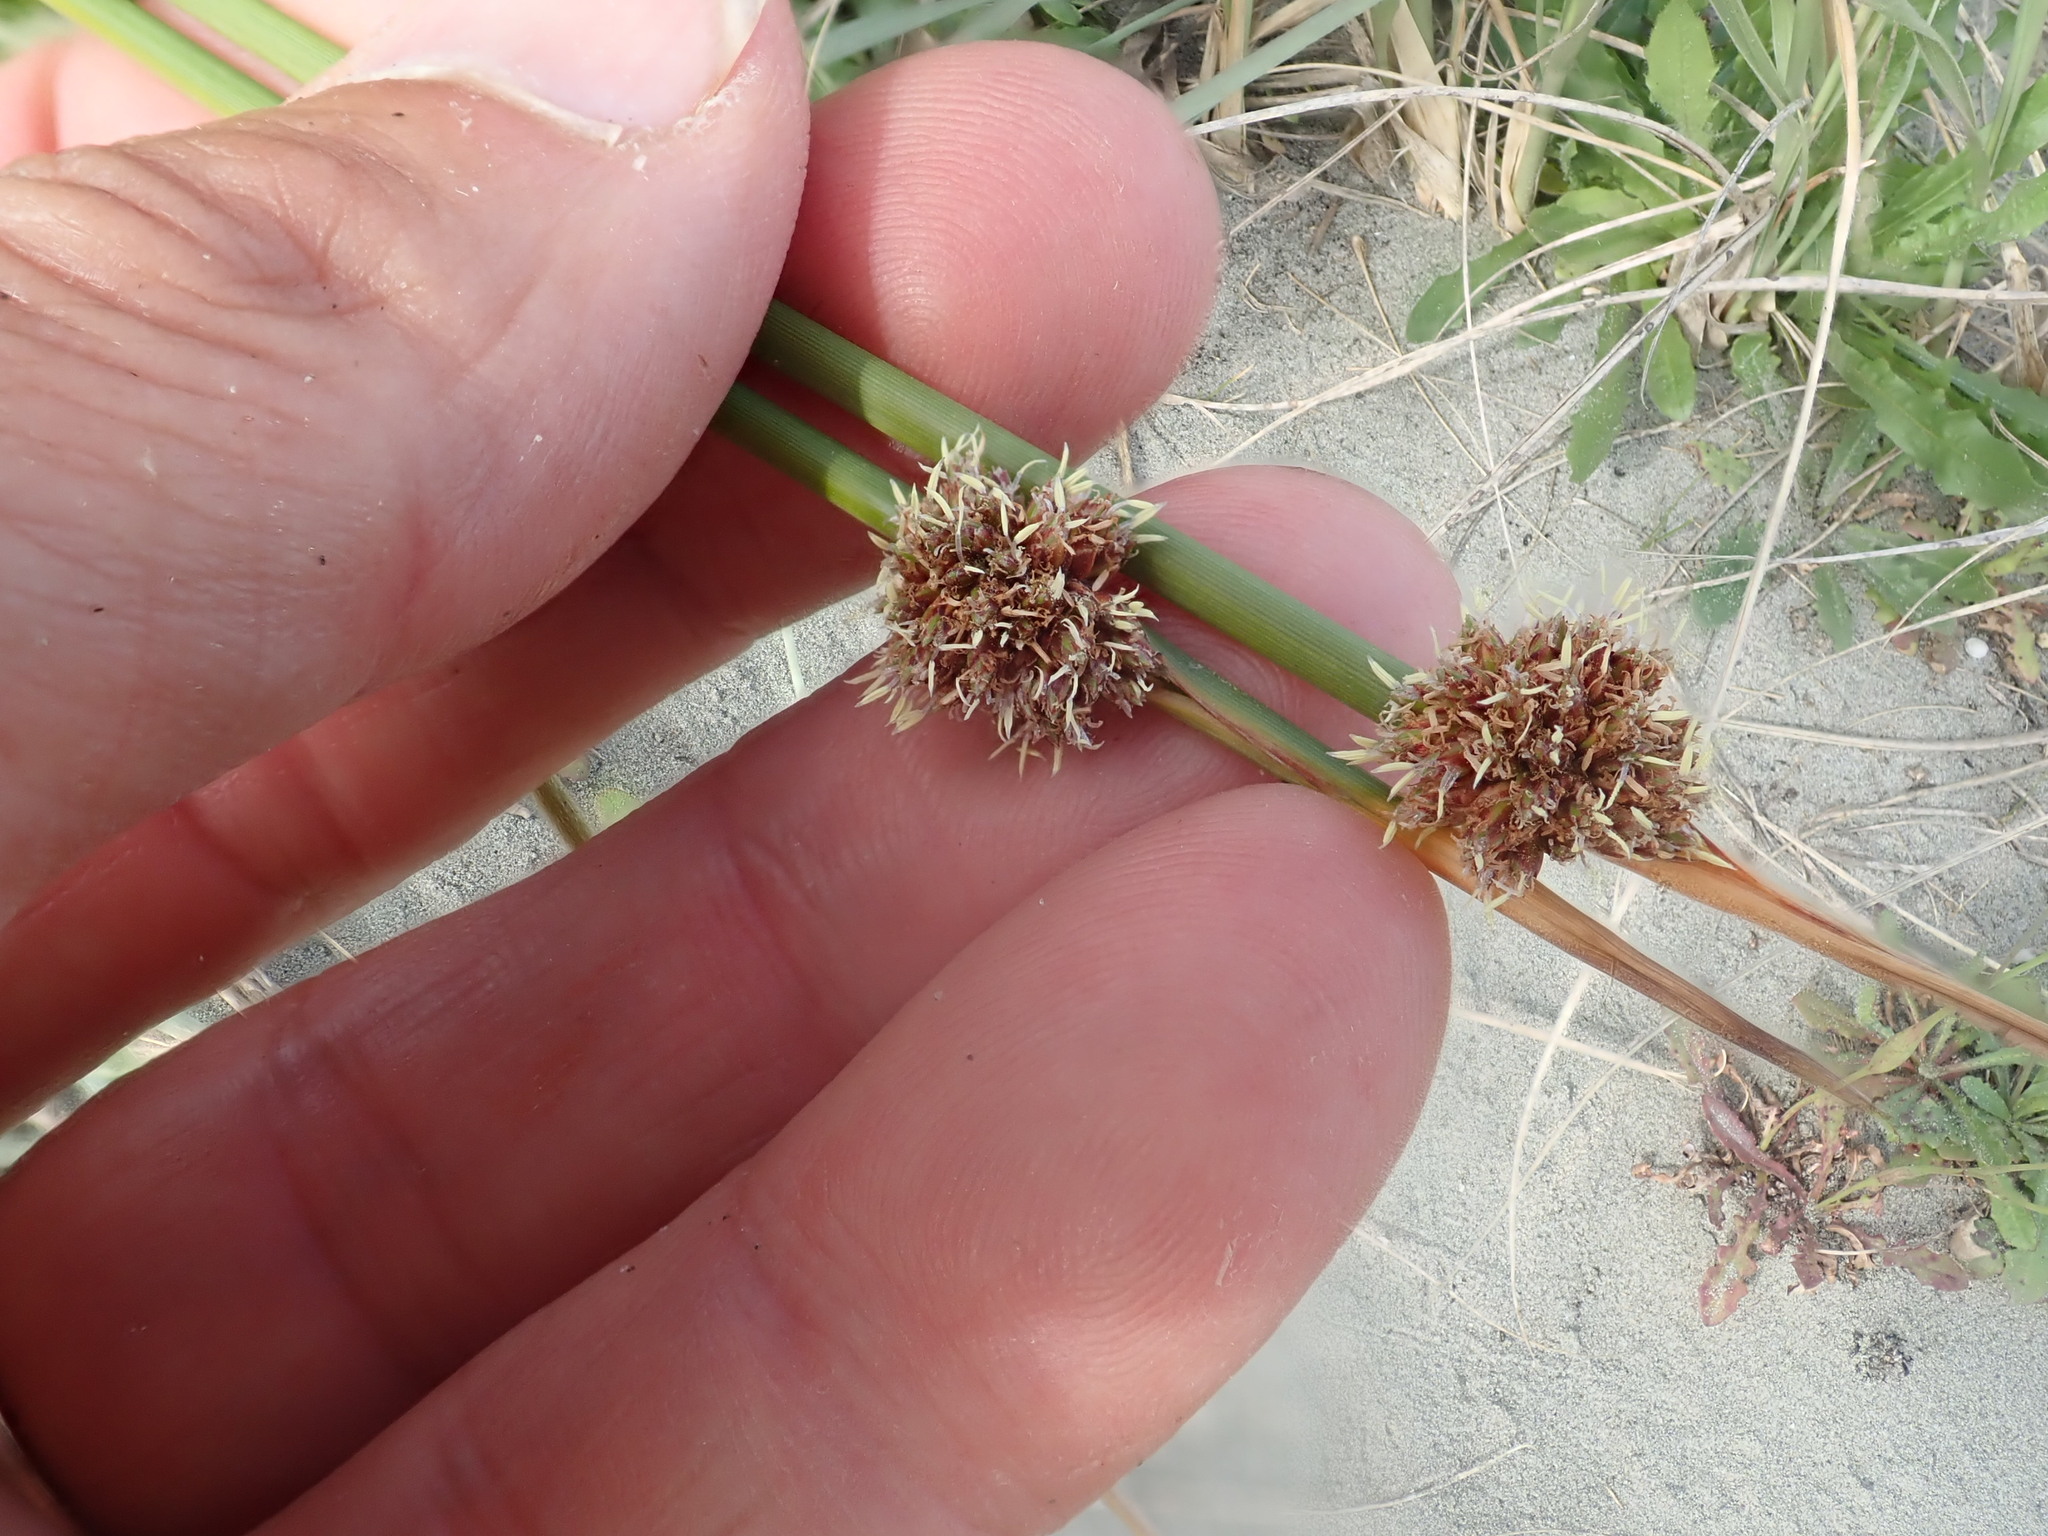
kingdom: Plantae
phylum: Tracheophyta
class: Liliopsida
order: Poales
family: Cyperaceae
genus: Ficinia
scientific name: Ficinia nodosa
